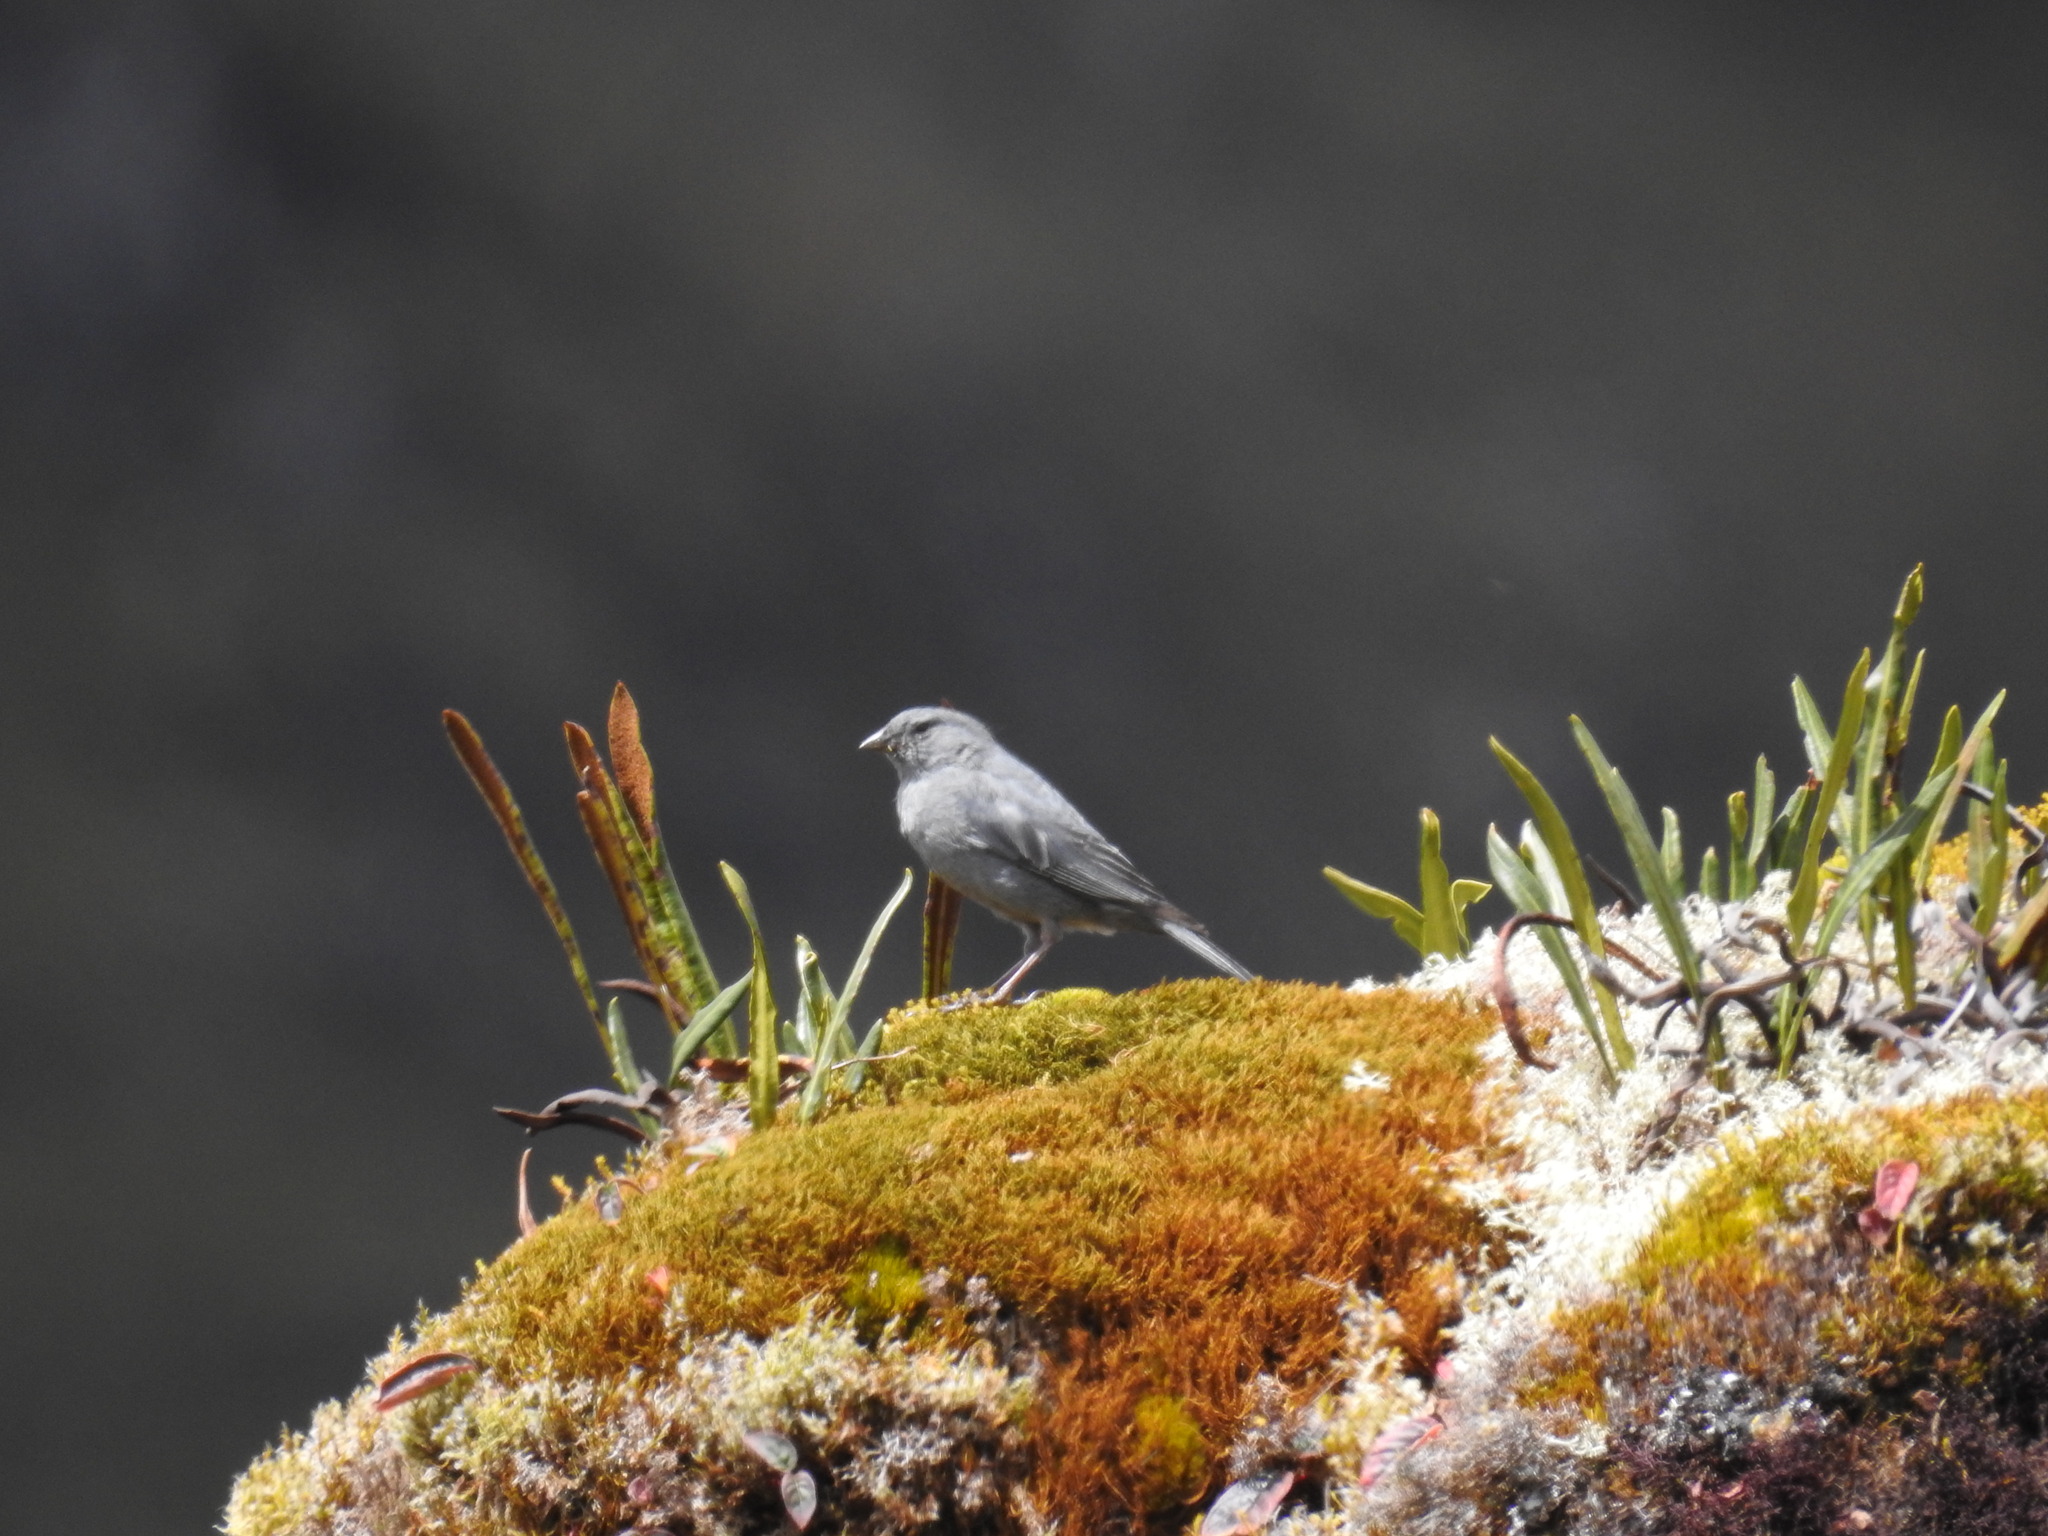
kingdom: Animalia
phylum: Chordata
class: Aves
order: Passeriformes
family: Thraupidae
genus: Geospizopsis
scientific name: Geospizopsis unicolor
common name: Plumbeous sierra-finch
